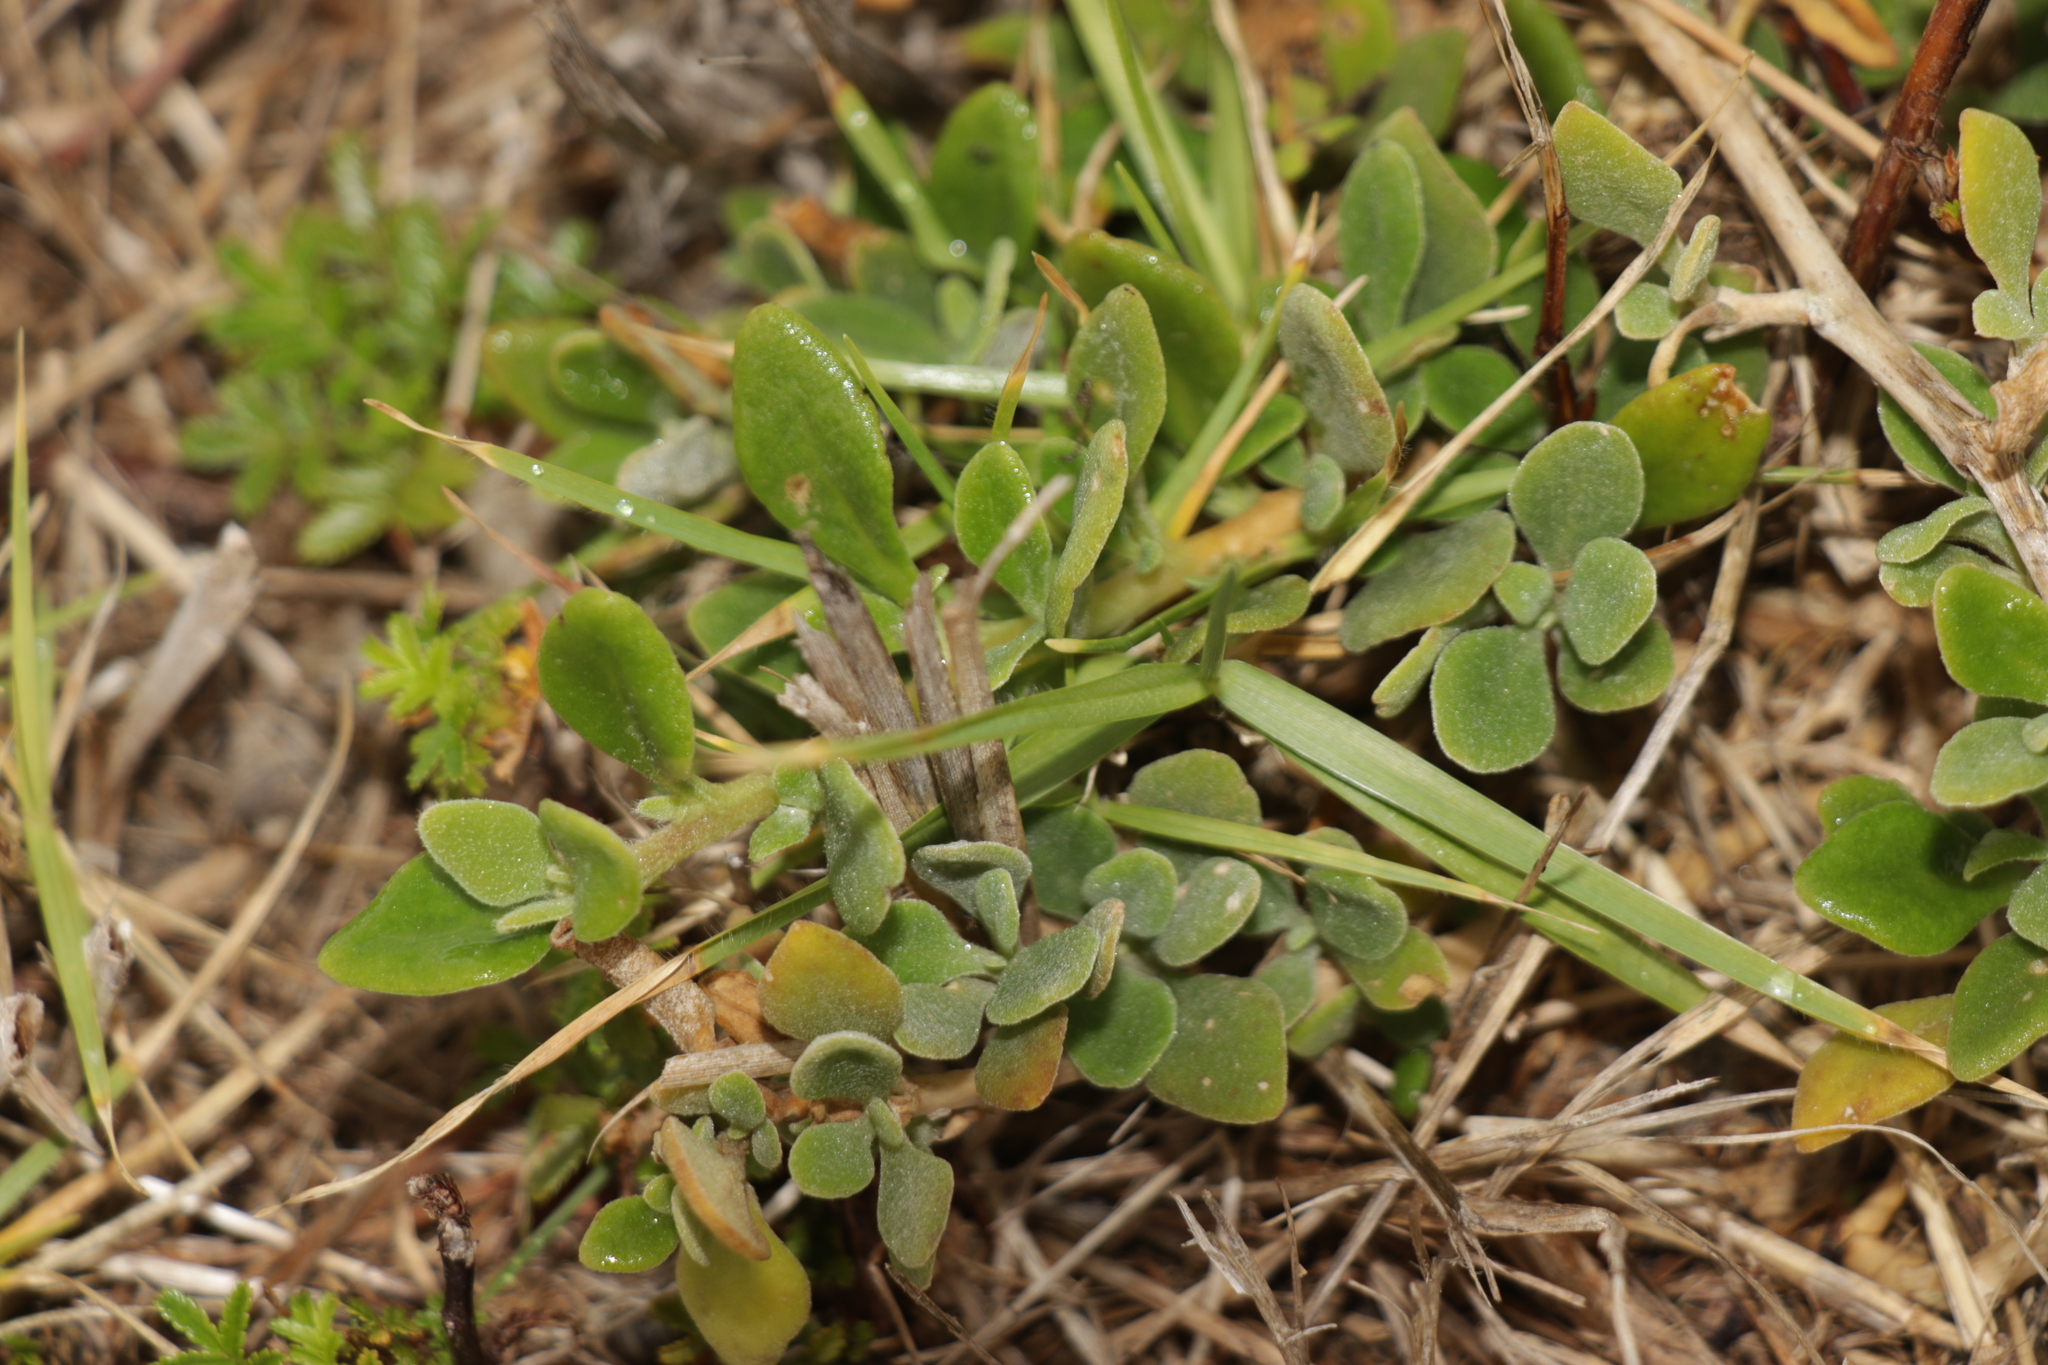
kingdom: Plantae
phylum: Tracheophyta
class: Magnoliopsida
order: Caryophyllales
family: Aizoaceae
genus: Tetragonia
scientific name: Tetragonia implexicoma
